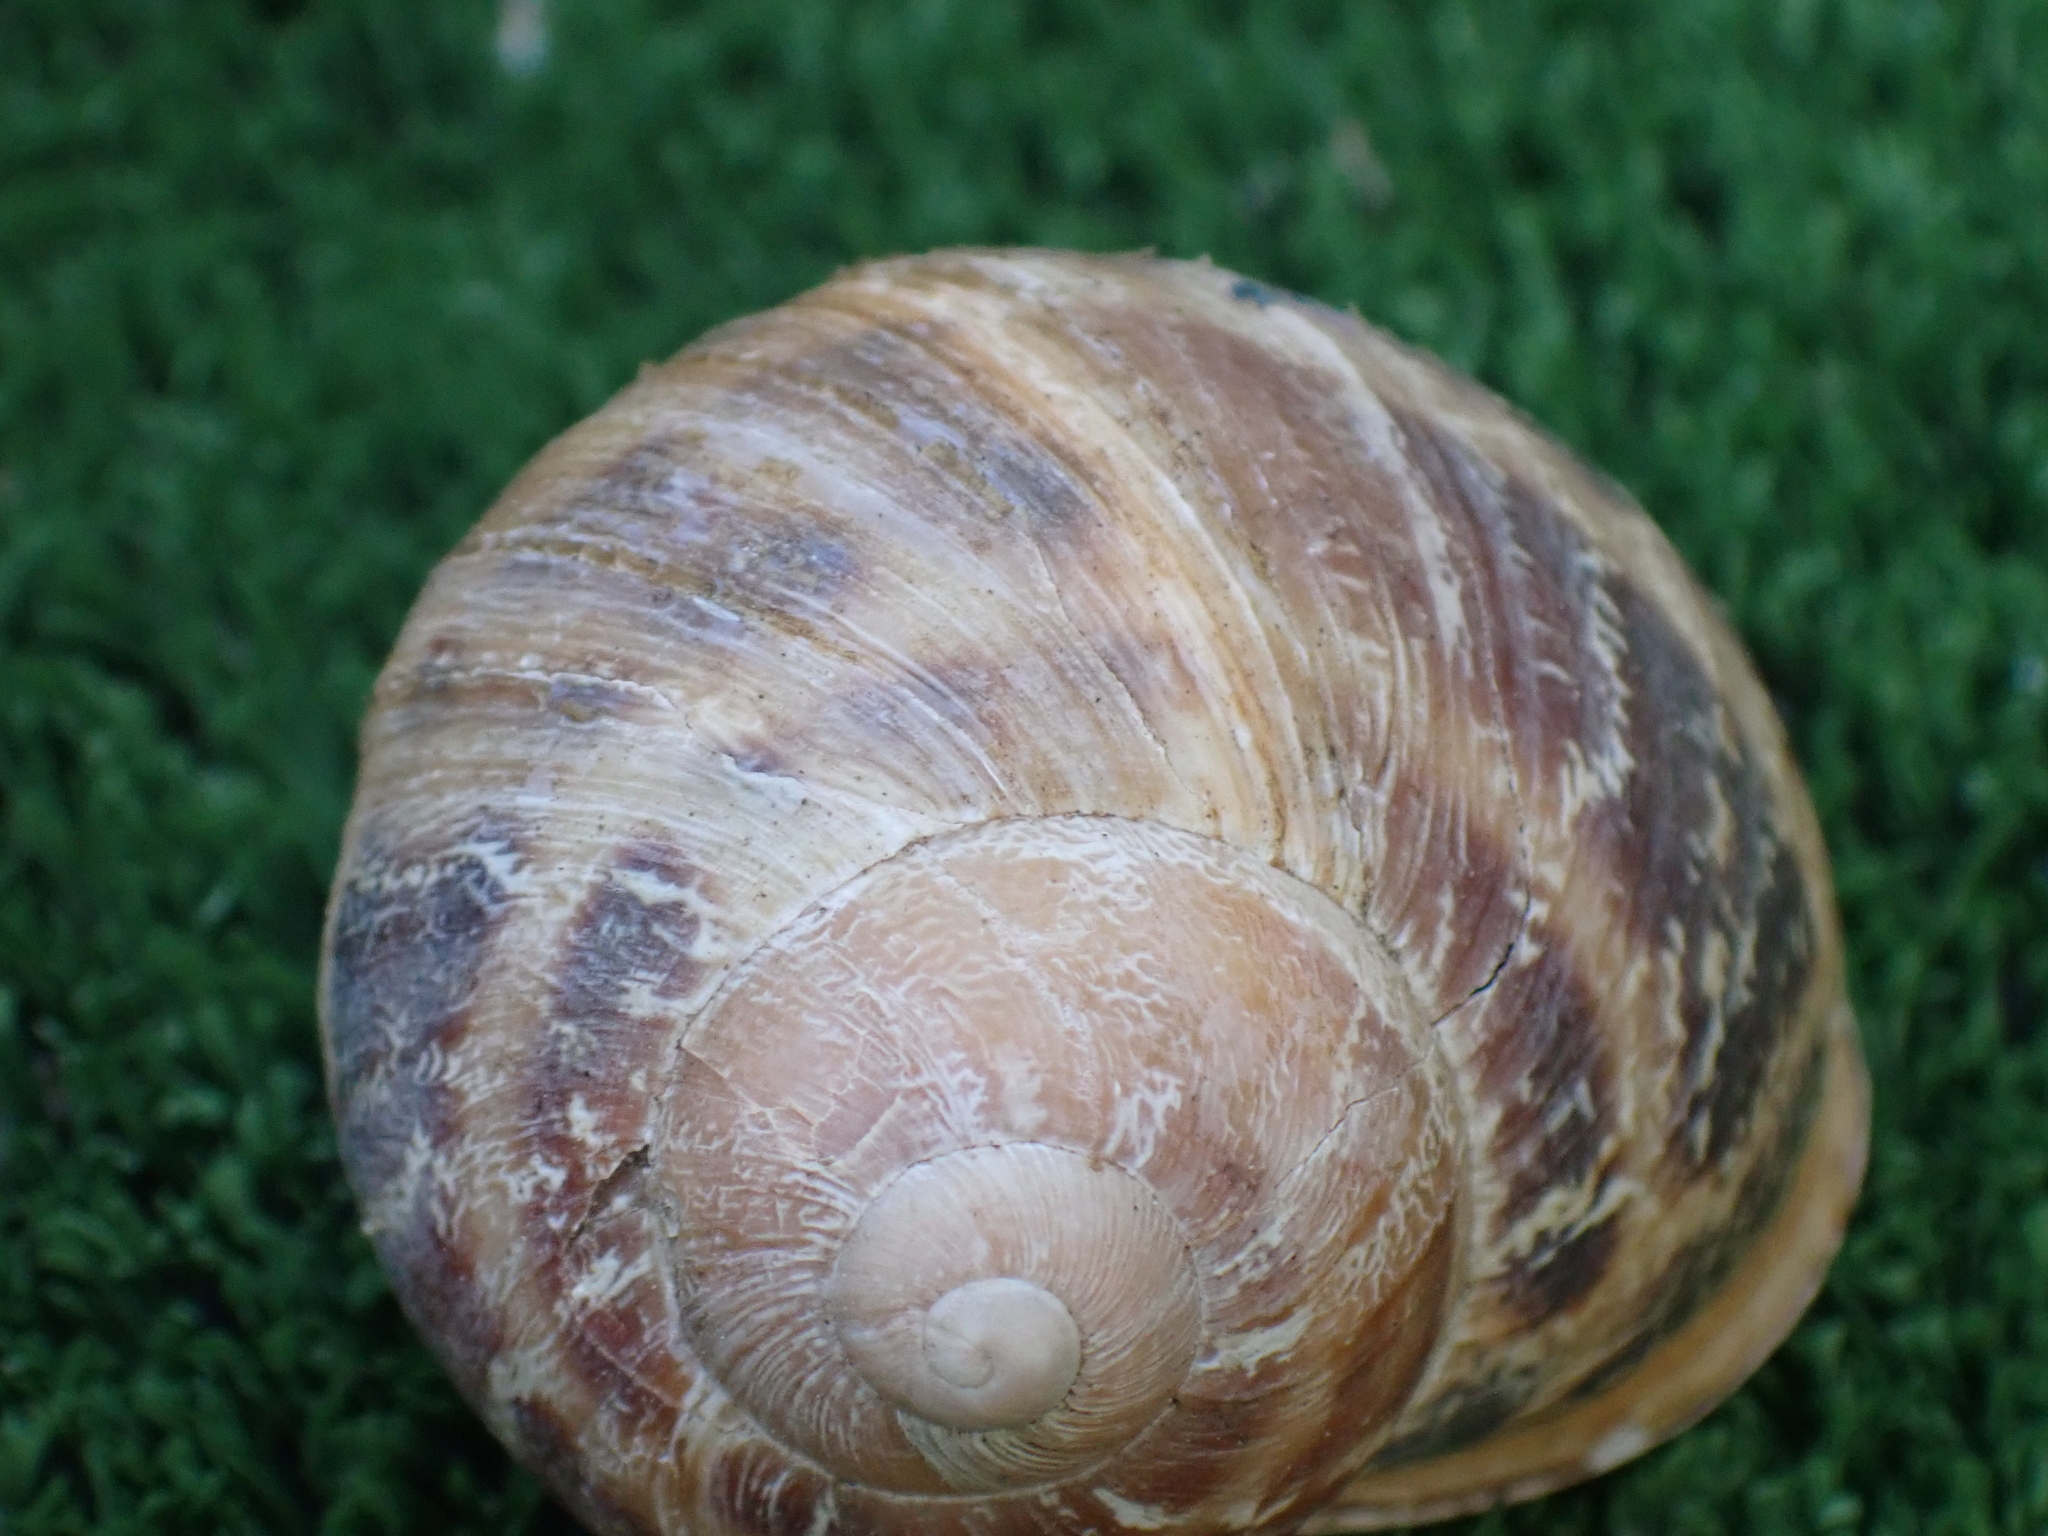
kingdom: Animalia
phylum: Mollusca
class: Gastropoda
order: Stylommatophora
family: Helicidae
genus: Cornu
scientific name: Cornu aspersum
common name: Brown garden snail
